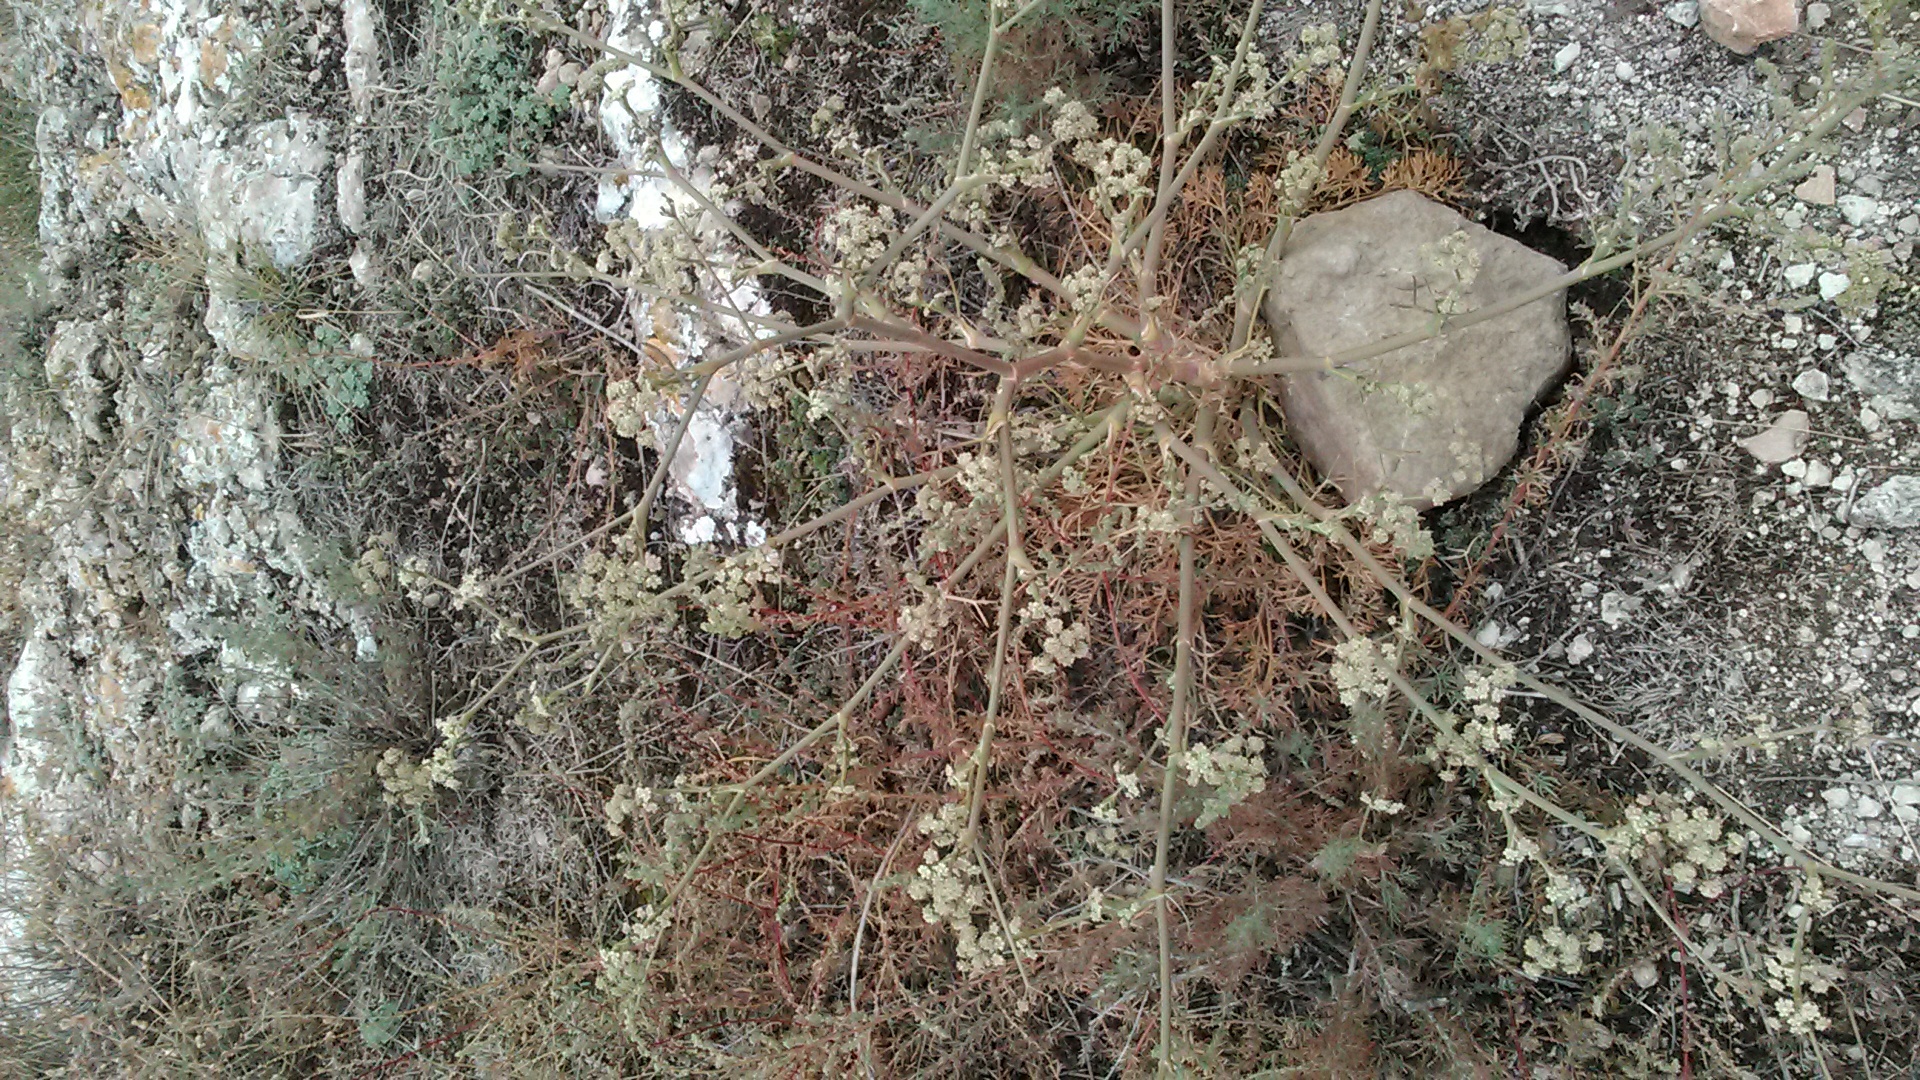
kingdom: Plantae
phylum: Tracheophyta
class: Magnoliopsida
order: Apiales
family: Apiaceae
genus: Seseli
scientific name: Seseli dichotomum
